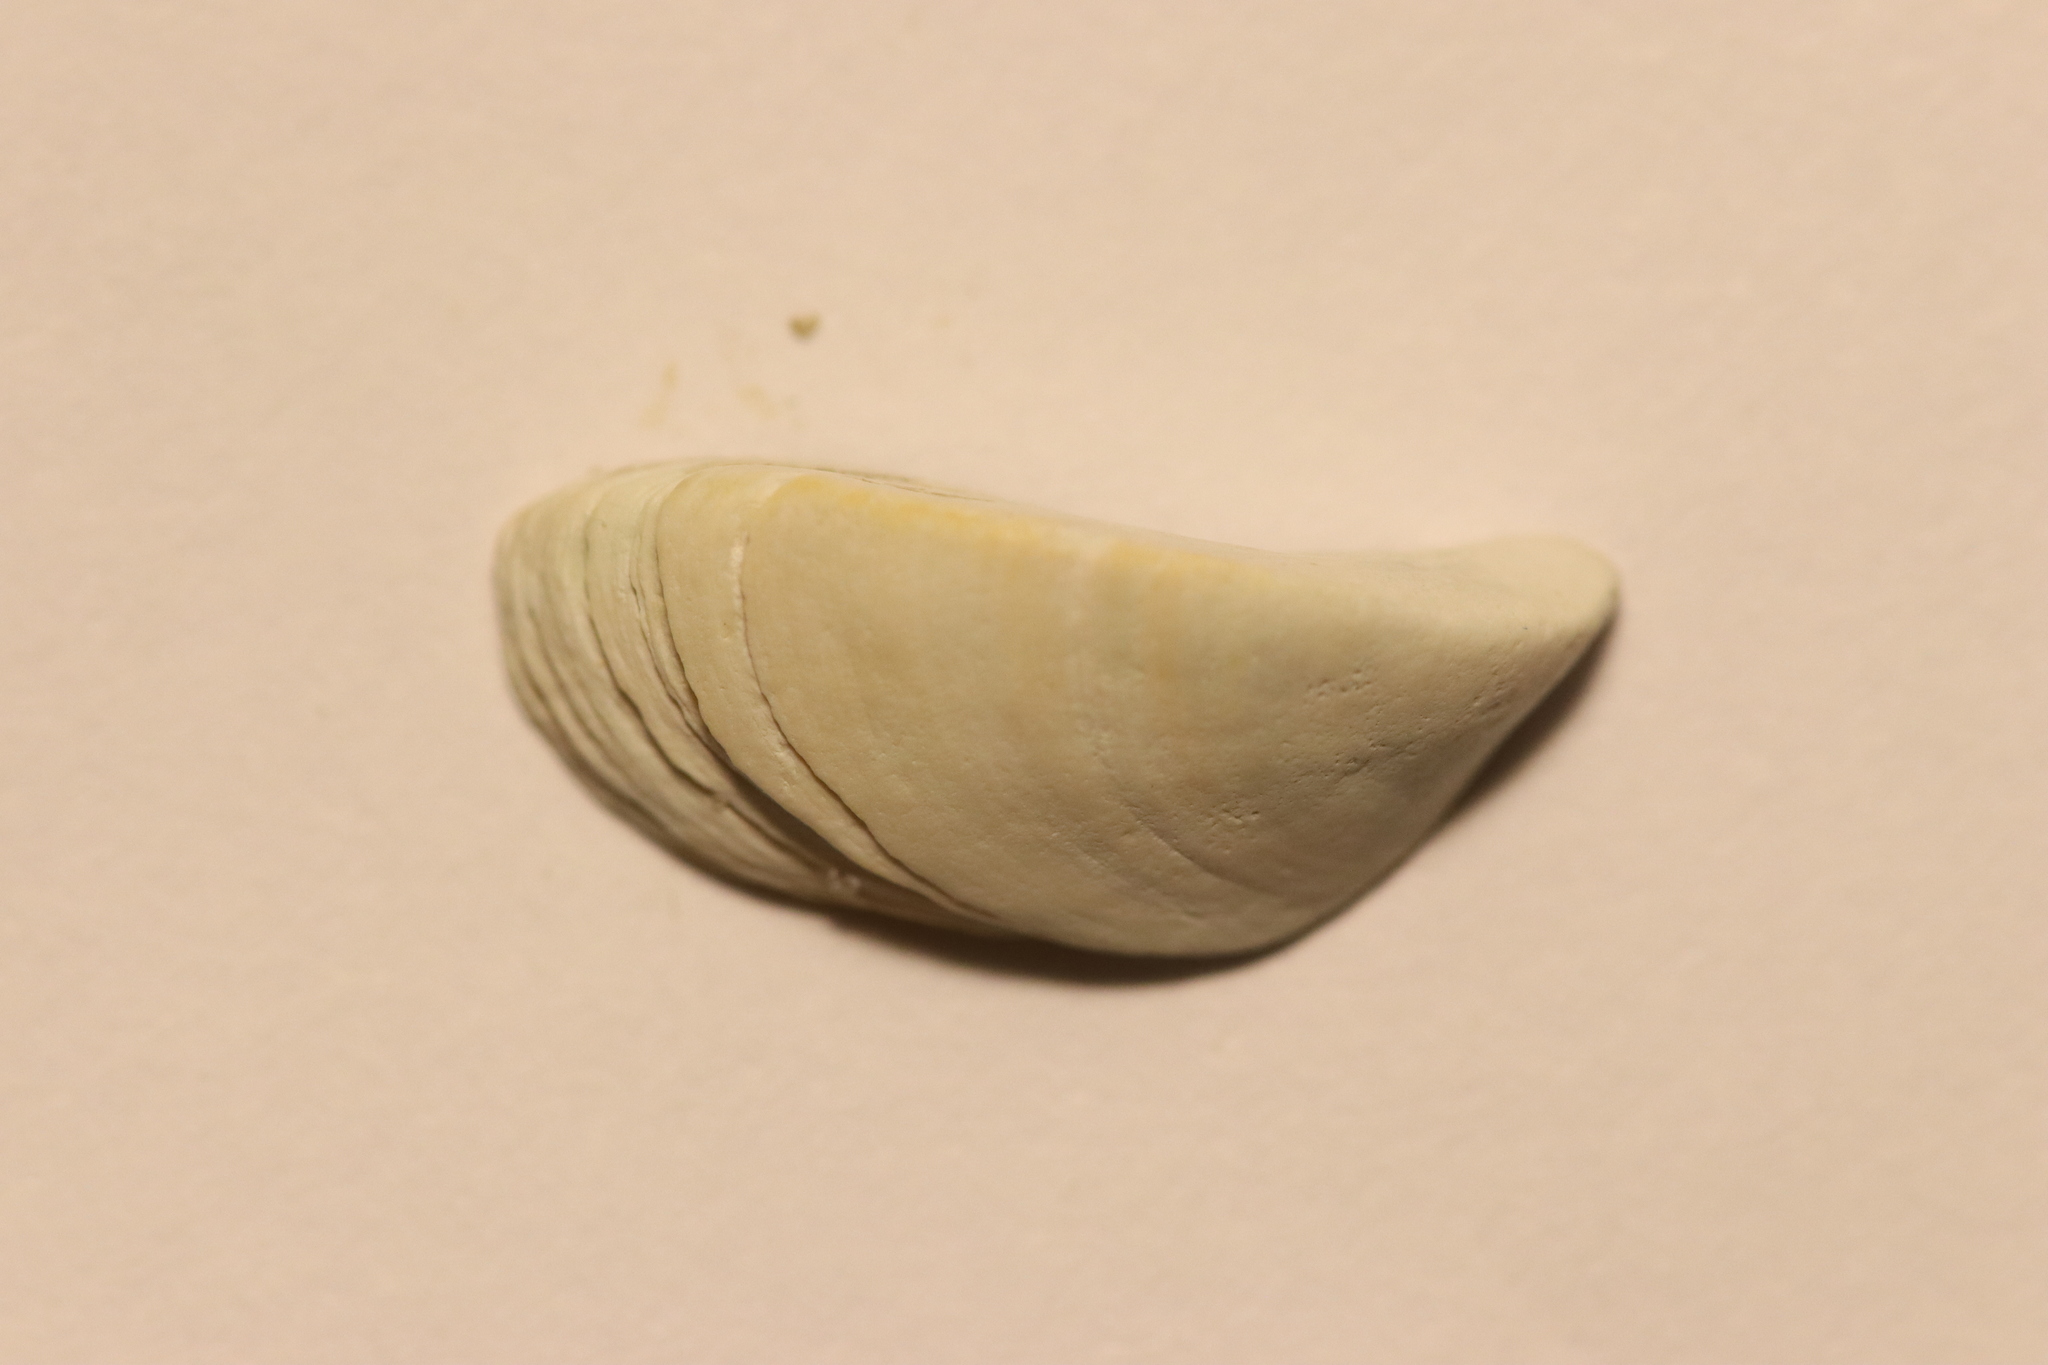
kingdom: Animalia
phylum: Mollusca
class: Bivalvia
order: Myida
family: Dreissenidae
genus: Dreissena
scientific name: Dreissena polymorpha
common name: Zebra mussel
